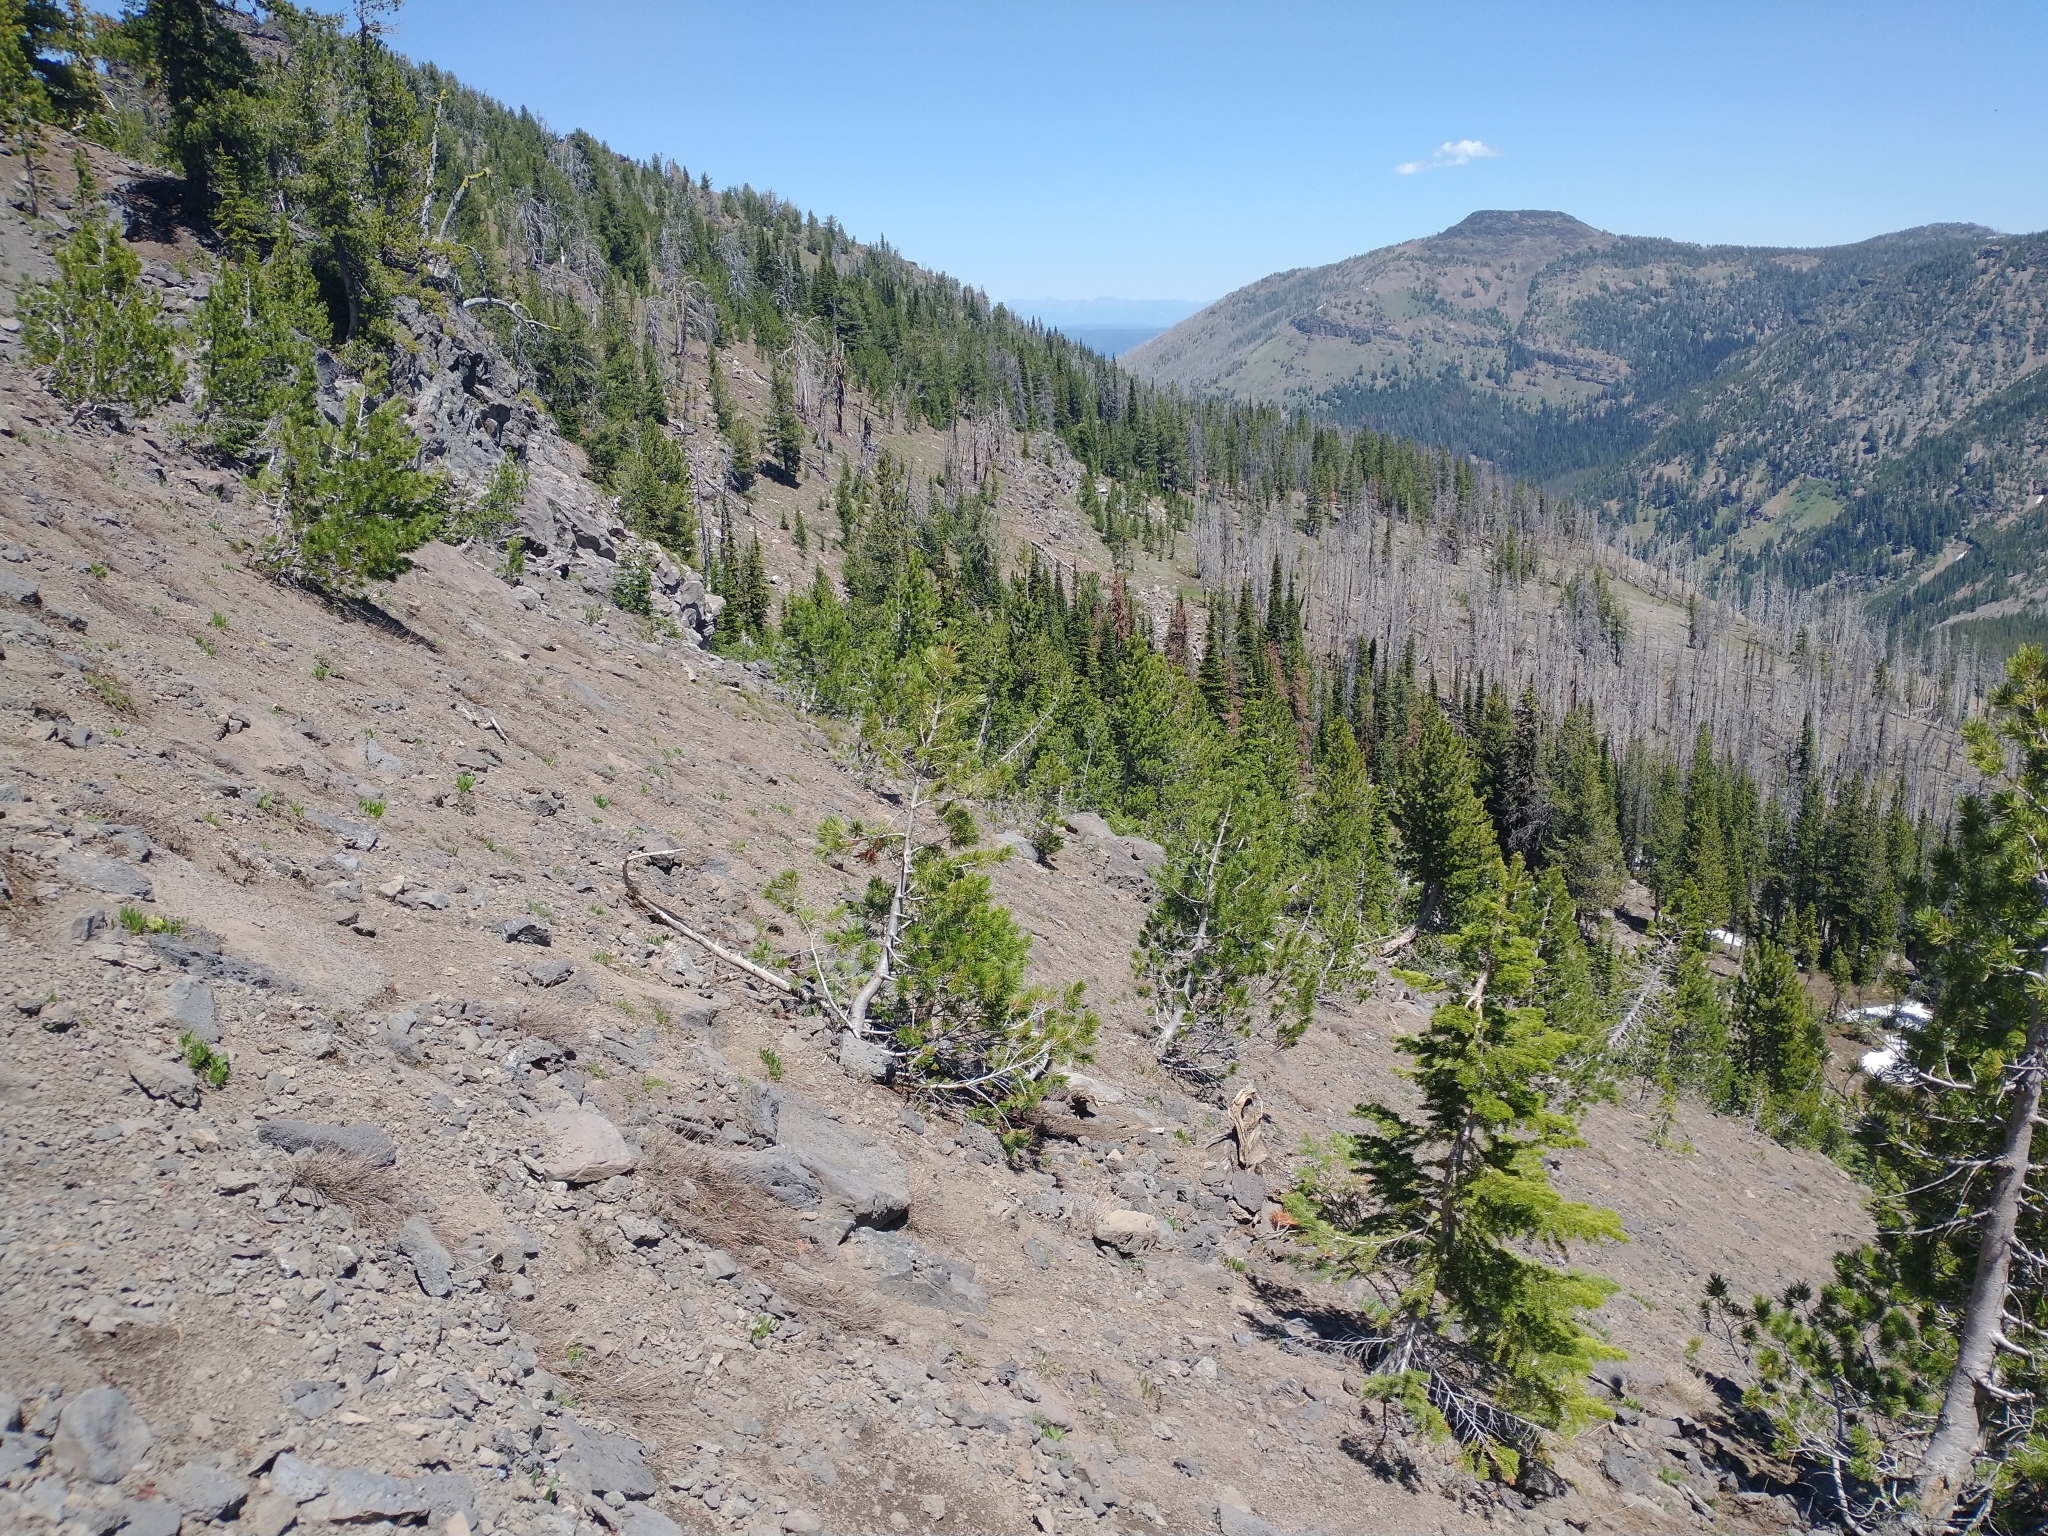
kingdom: Plantae
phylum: Tracheophyta
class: Pinopsida
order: Pinales
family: Pinaceae
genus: Pinus
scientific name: Pinus albicaulis
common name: Whitebark pine
